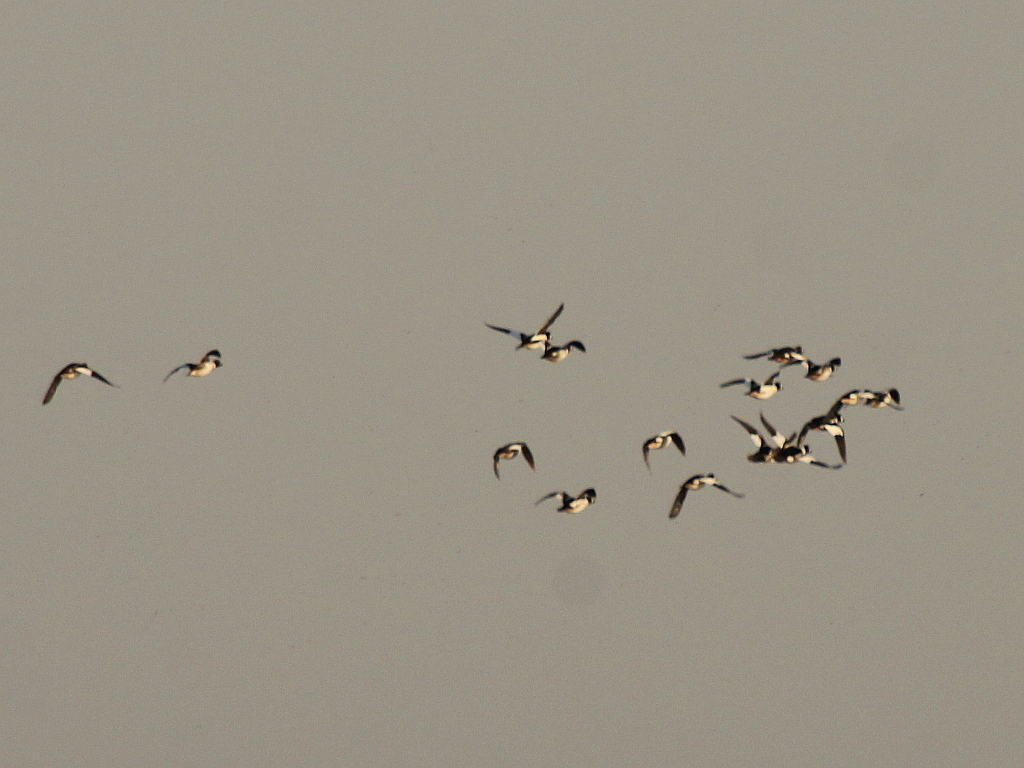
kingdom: Animalia
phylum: Chordata
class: Aves
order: Anseriformes
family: Anatidae
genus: Bucephala
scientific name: Bucephala clangula
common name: Common goldeneye
